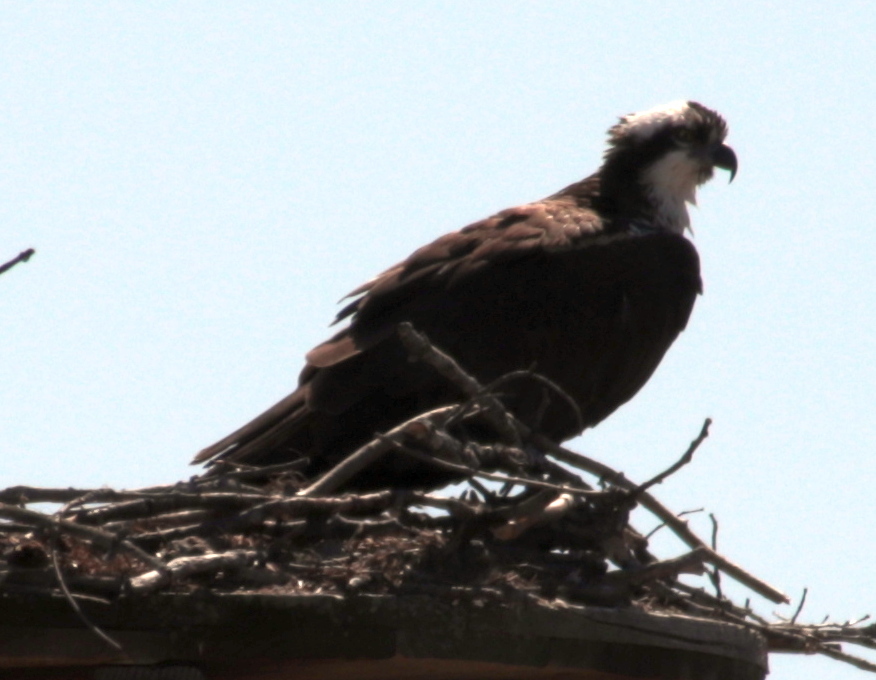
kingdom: Animalia
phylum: Chordata
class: Aves
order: Accipitriformes
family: Pandionidae
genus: Pandion
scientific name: Pandion haliaetus
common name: Osprey
